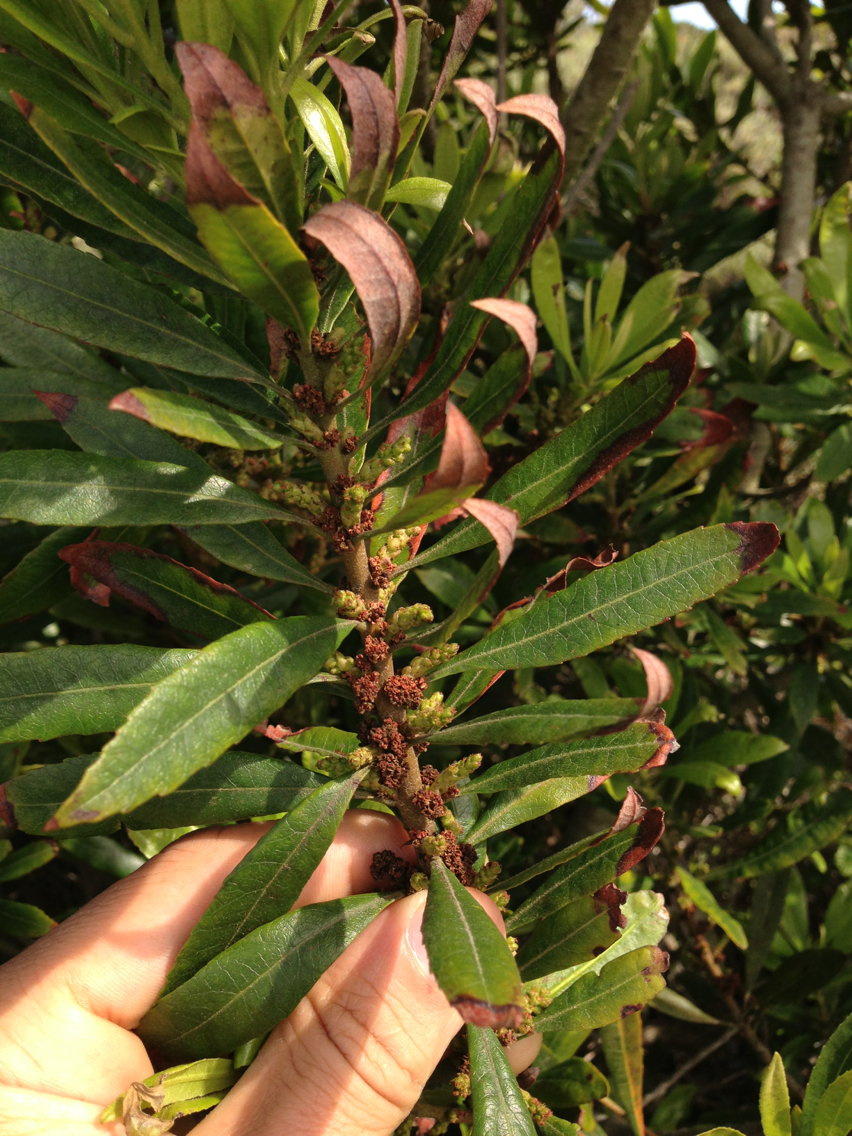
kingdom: Plantae
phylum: Tracheophyta
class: Magnoliopsida
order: Fagales
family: Myricaceae
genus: Morella
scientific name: Morella californica
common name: California wax-myrtle
